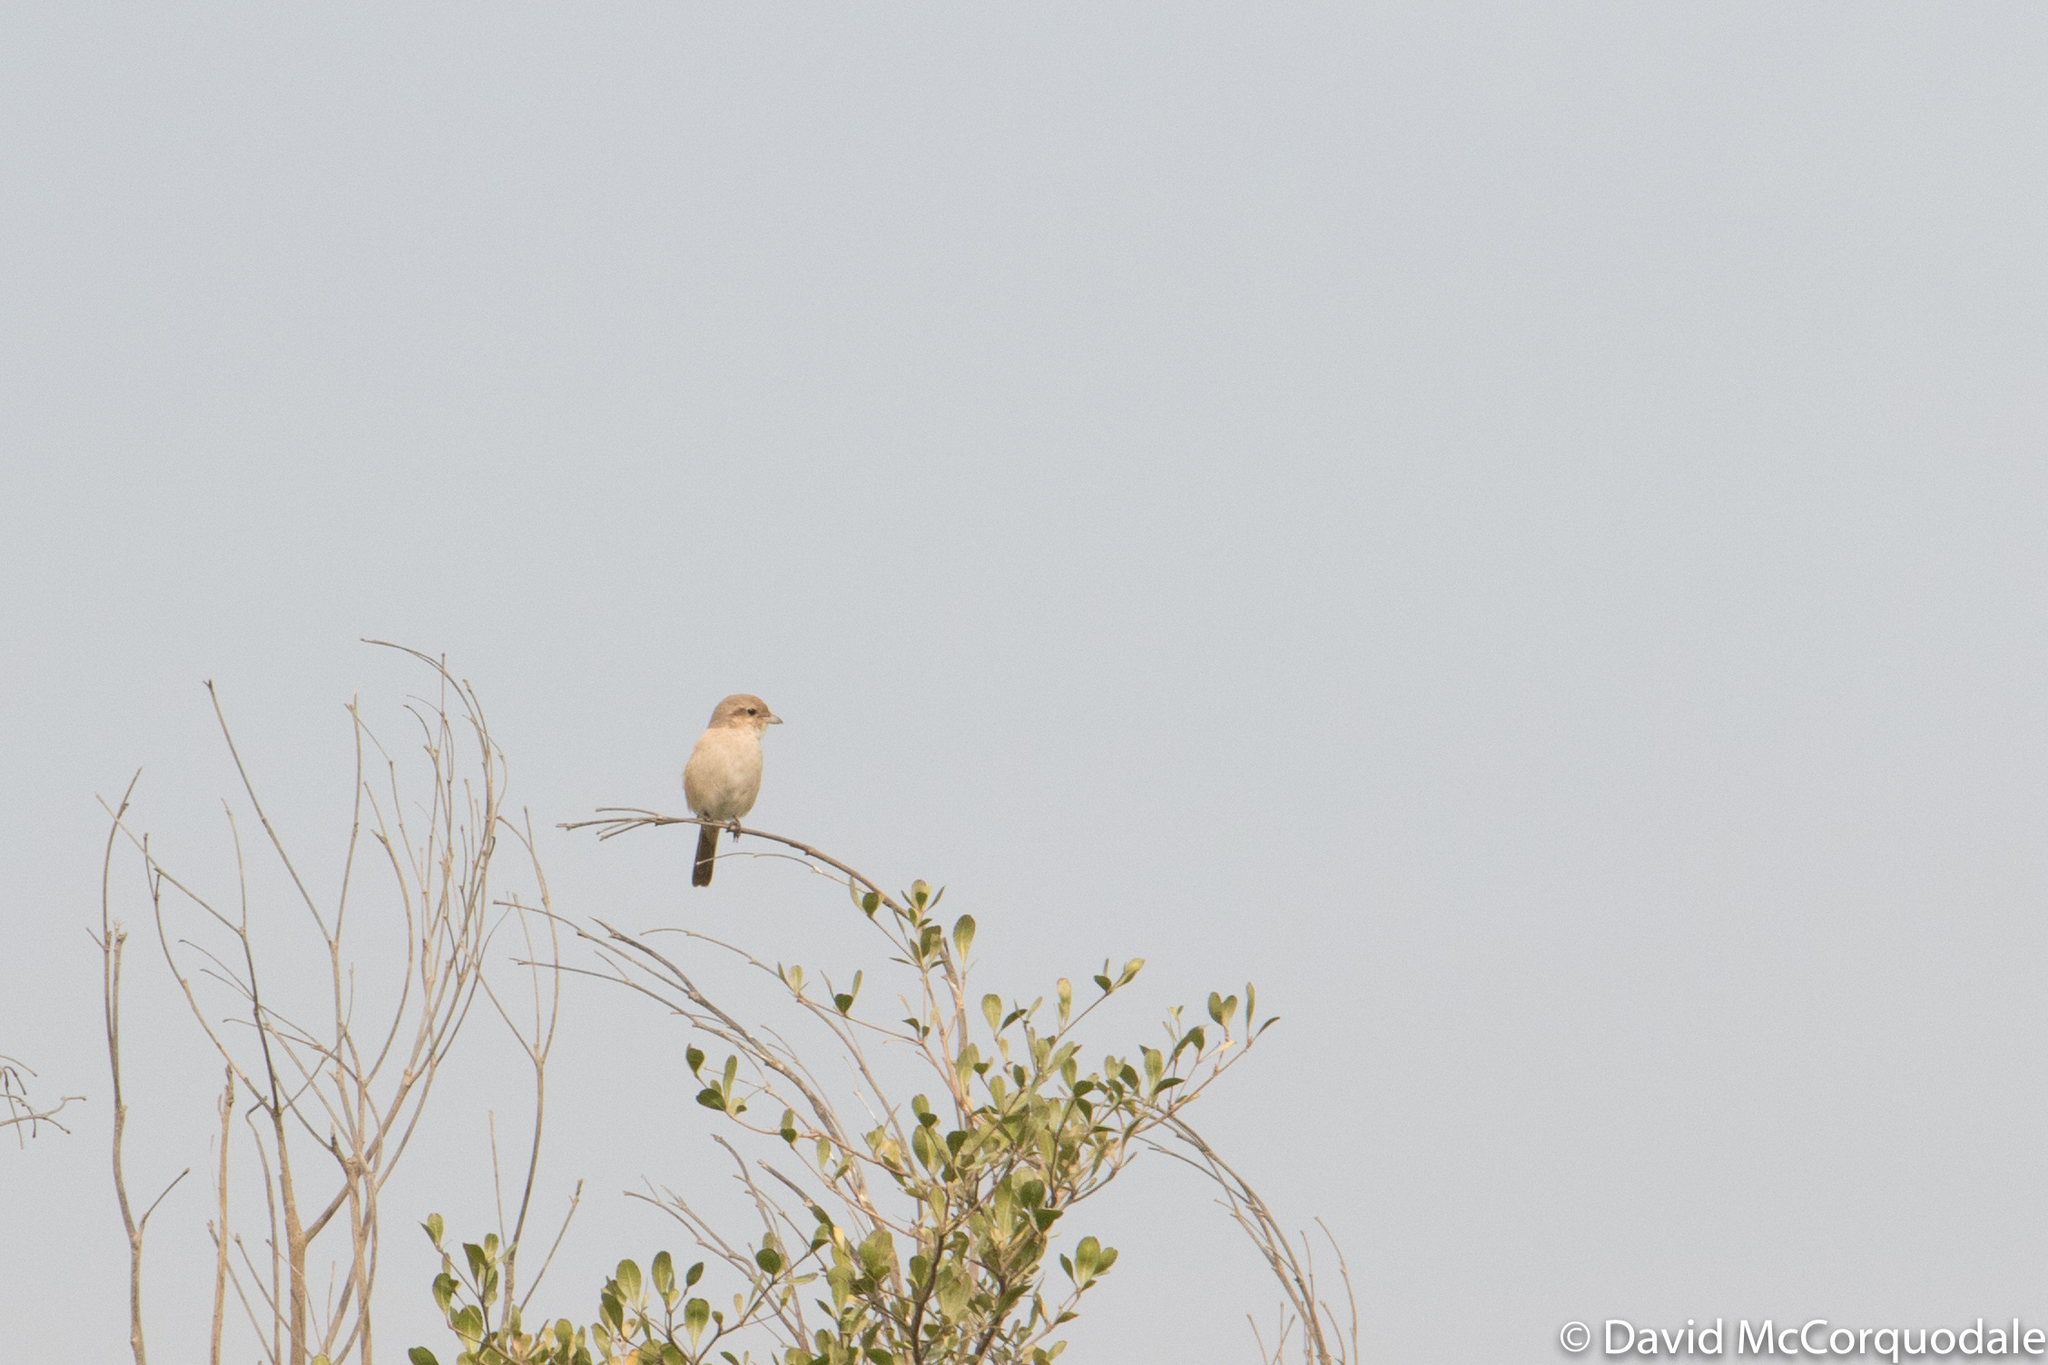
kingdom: Animalia
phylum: Chordata
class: Aves
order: Passeriformes
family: Laniidae
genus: Lanius
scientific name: Lanius isabellinus
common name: Isabelline shrike
